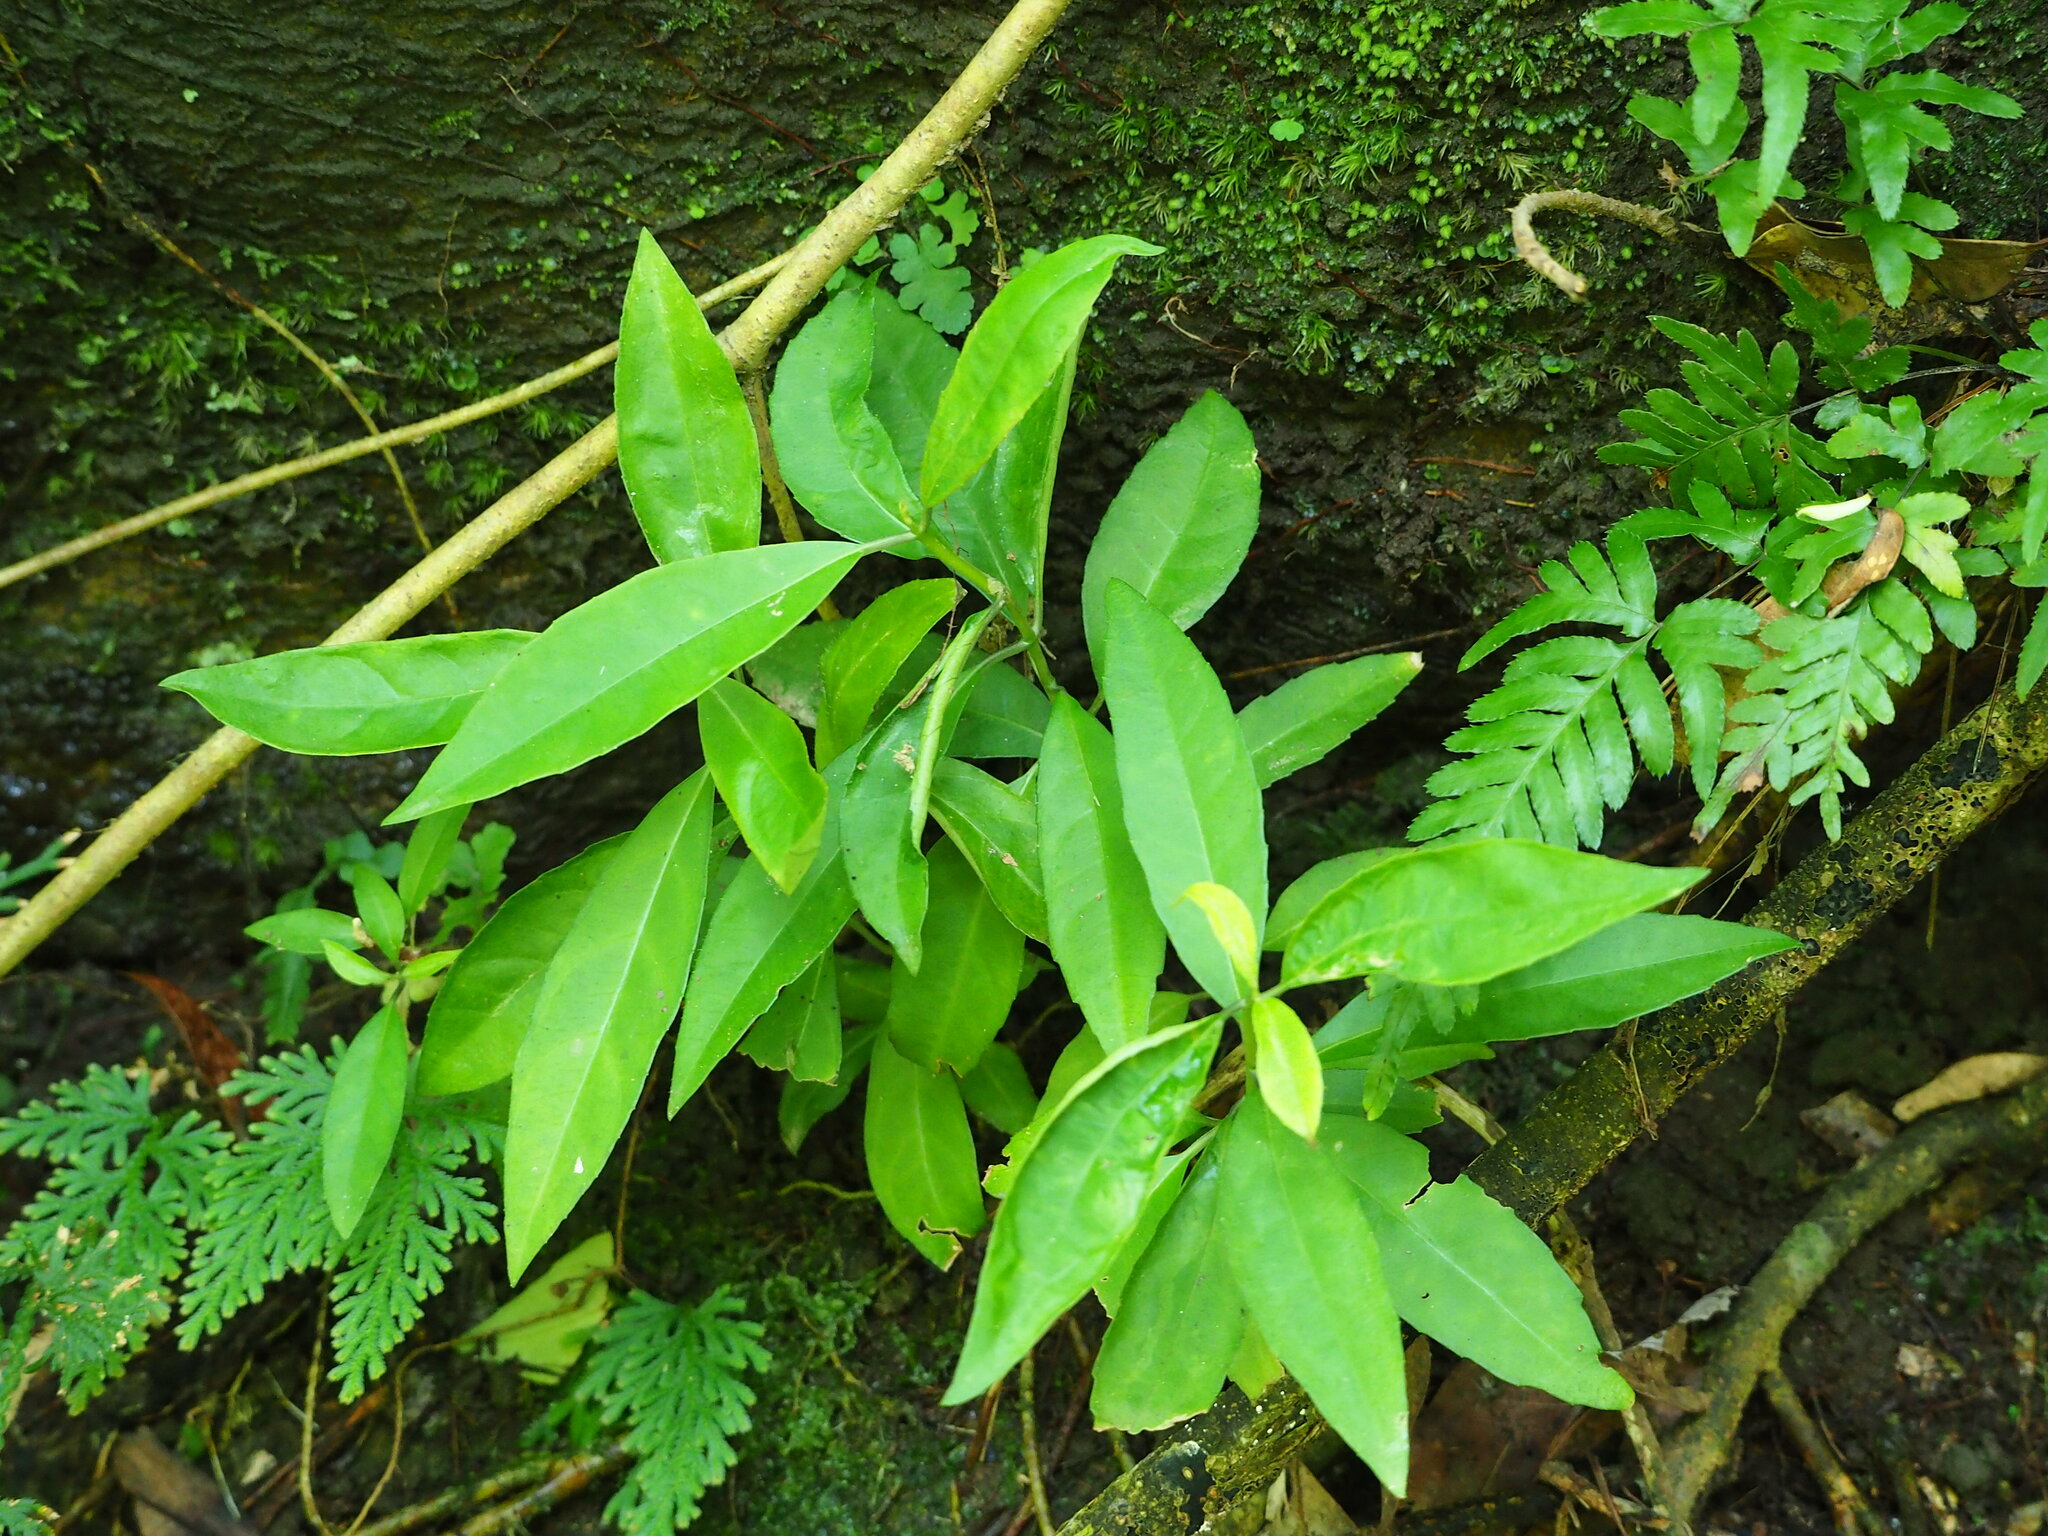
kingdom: Plantae
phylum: Tracheophyta
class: Magnoliopsida
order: Cornales
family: Hydrangeaceae
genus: Hydrangea
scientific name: Hydrangea chinensis
